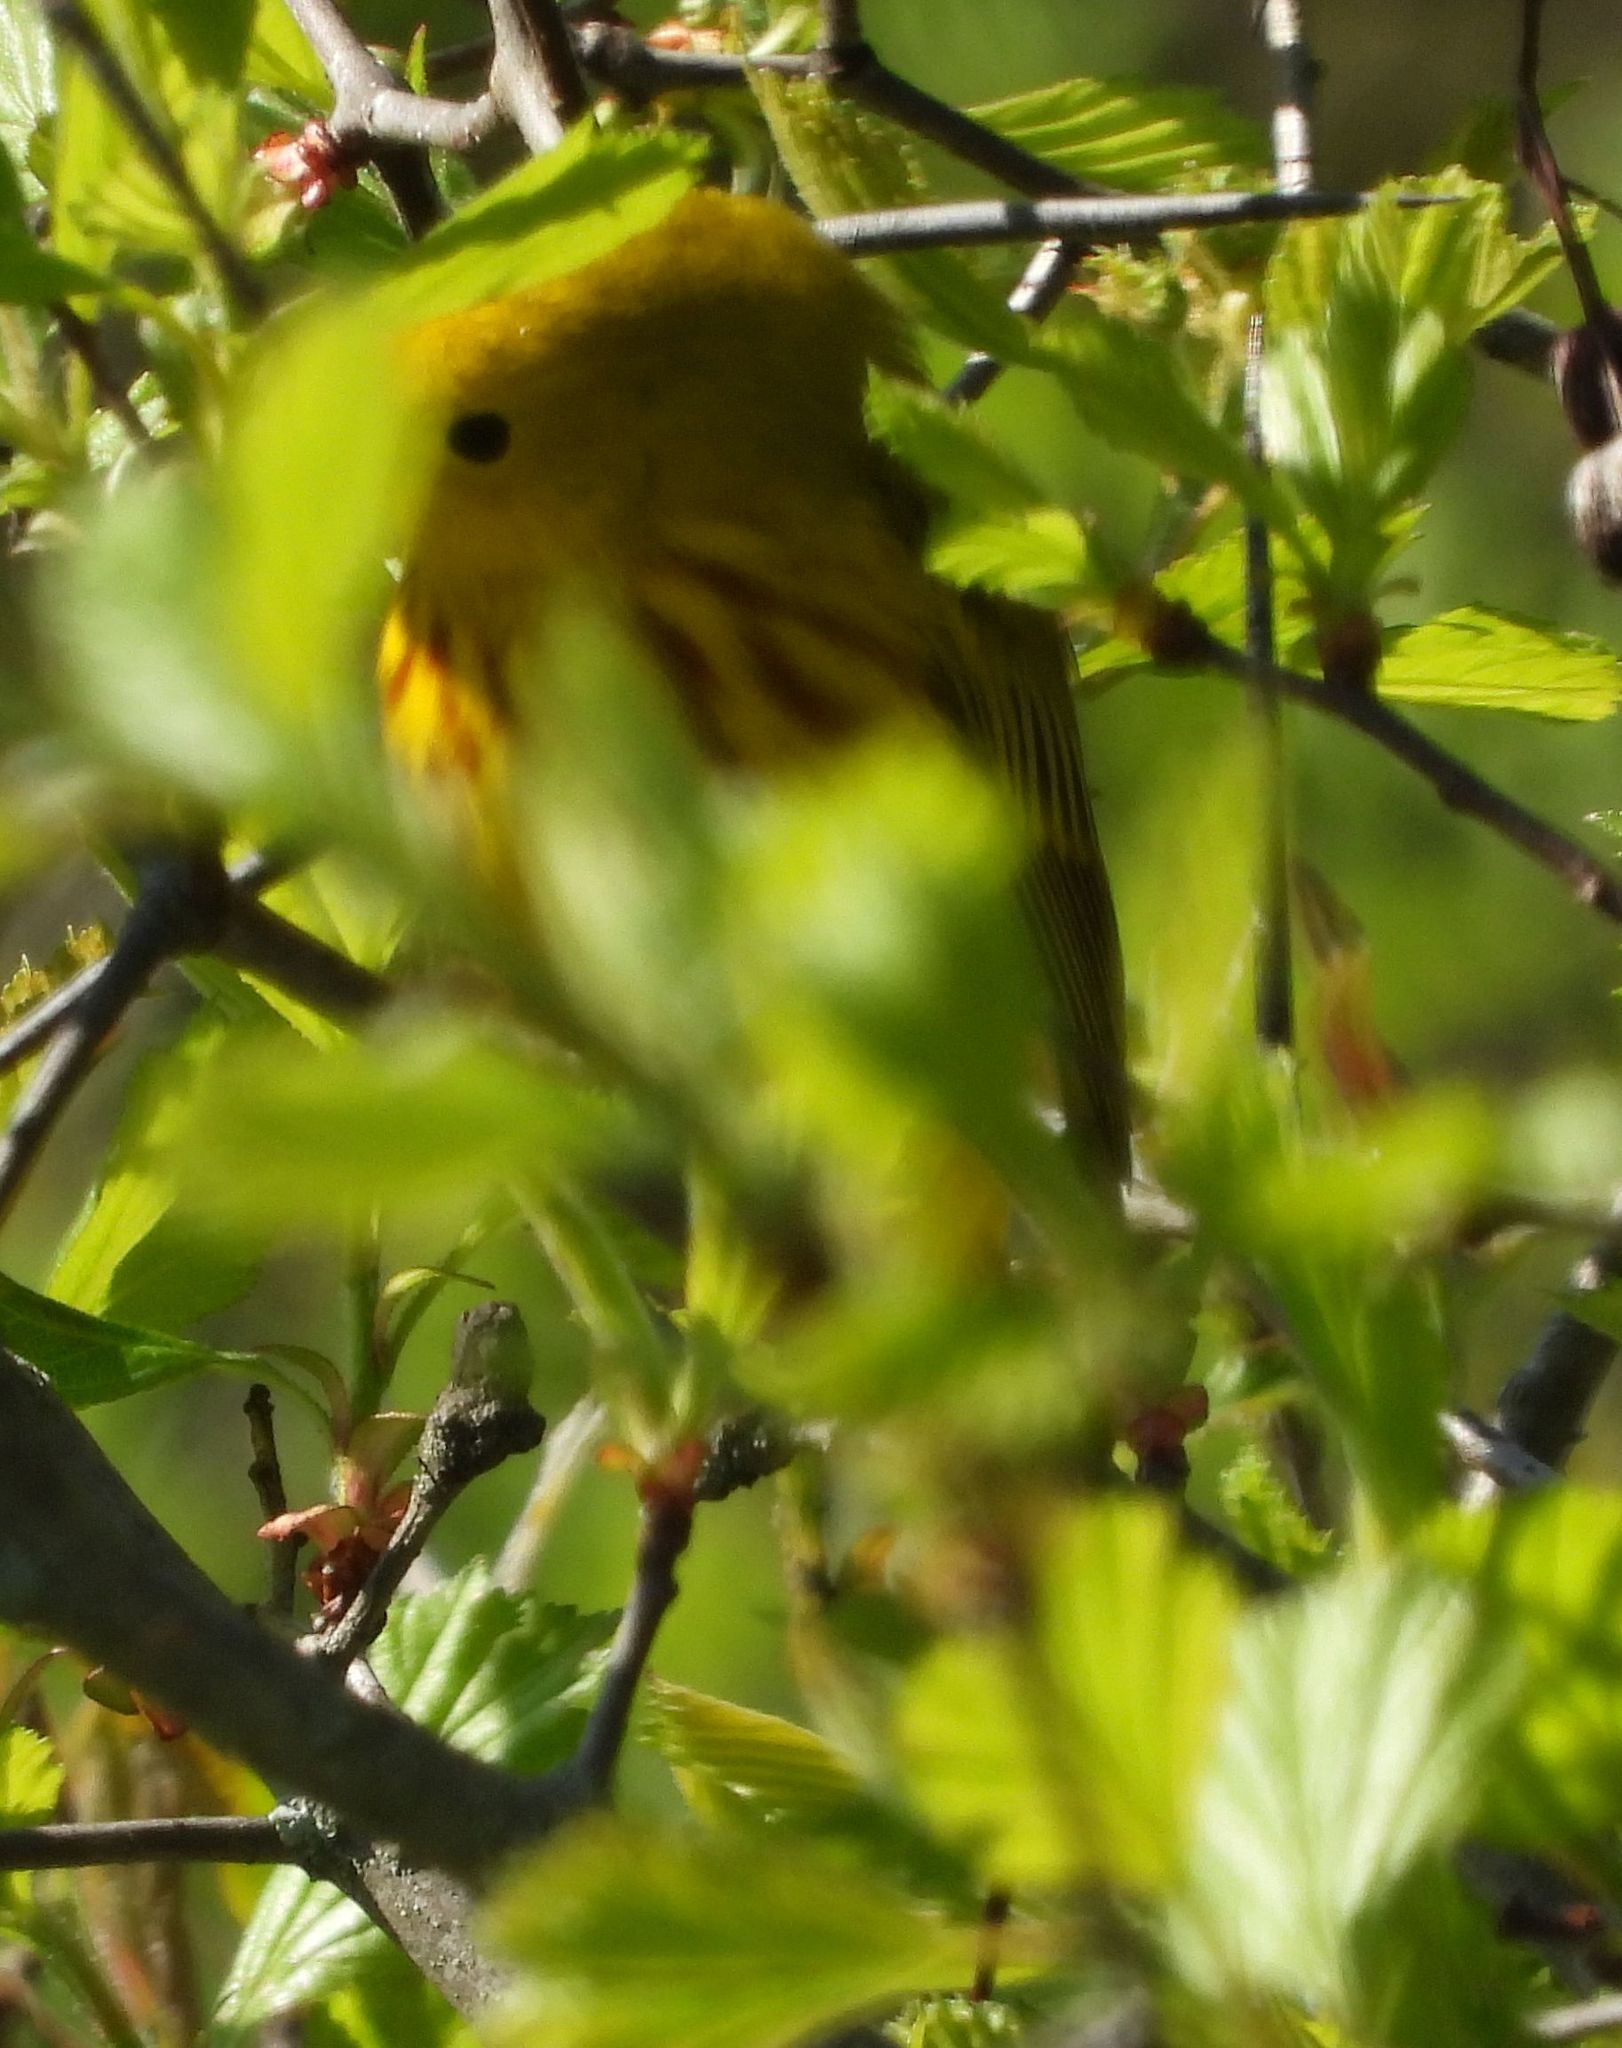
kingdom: Animalia
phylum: Chordata
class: Aves
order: Passeriformes
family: Parulidae
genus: Setophaga
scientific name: Setophaga petechia
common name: Yellow warbler
